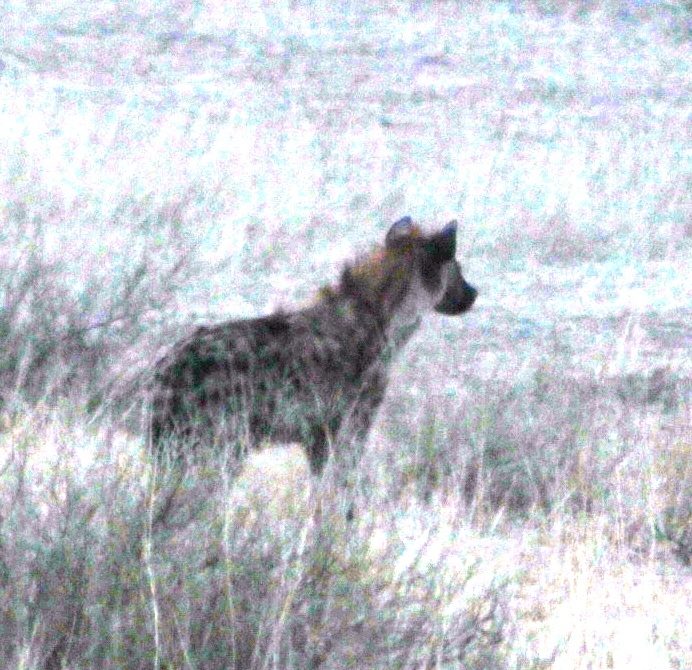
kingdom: Animalia
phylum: Chordata
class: Mammalia
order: Carnivora
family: Hyaenidae
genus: Crocuta
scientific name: Crocuta crocuta
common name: Spotted hyaena
